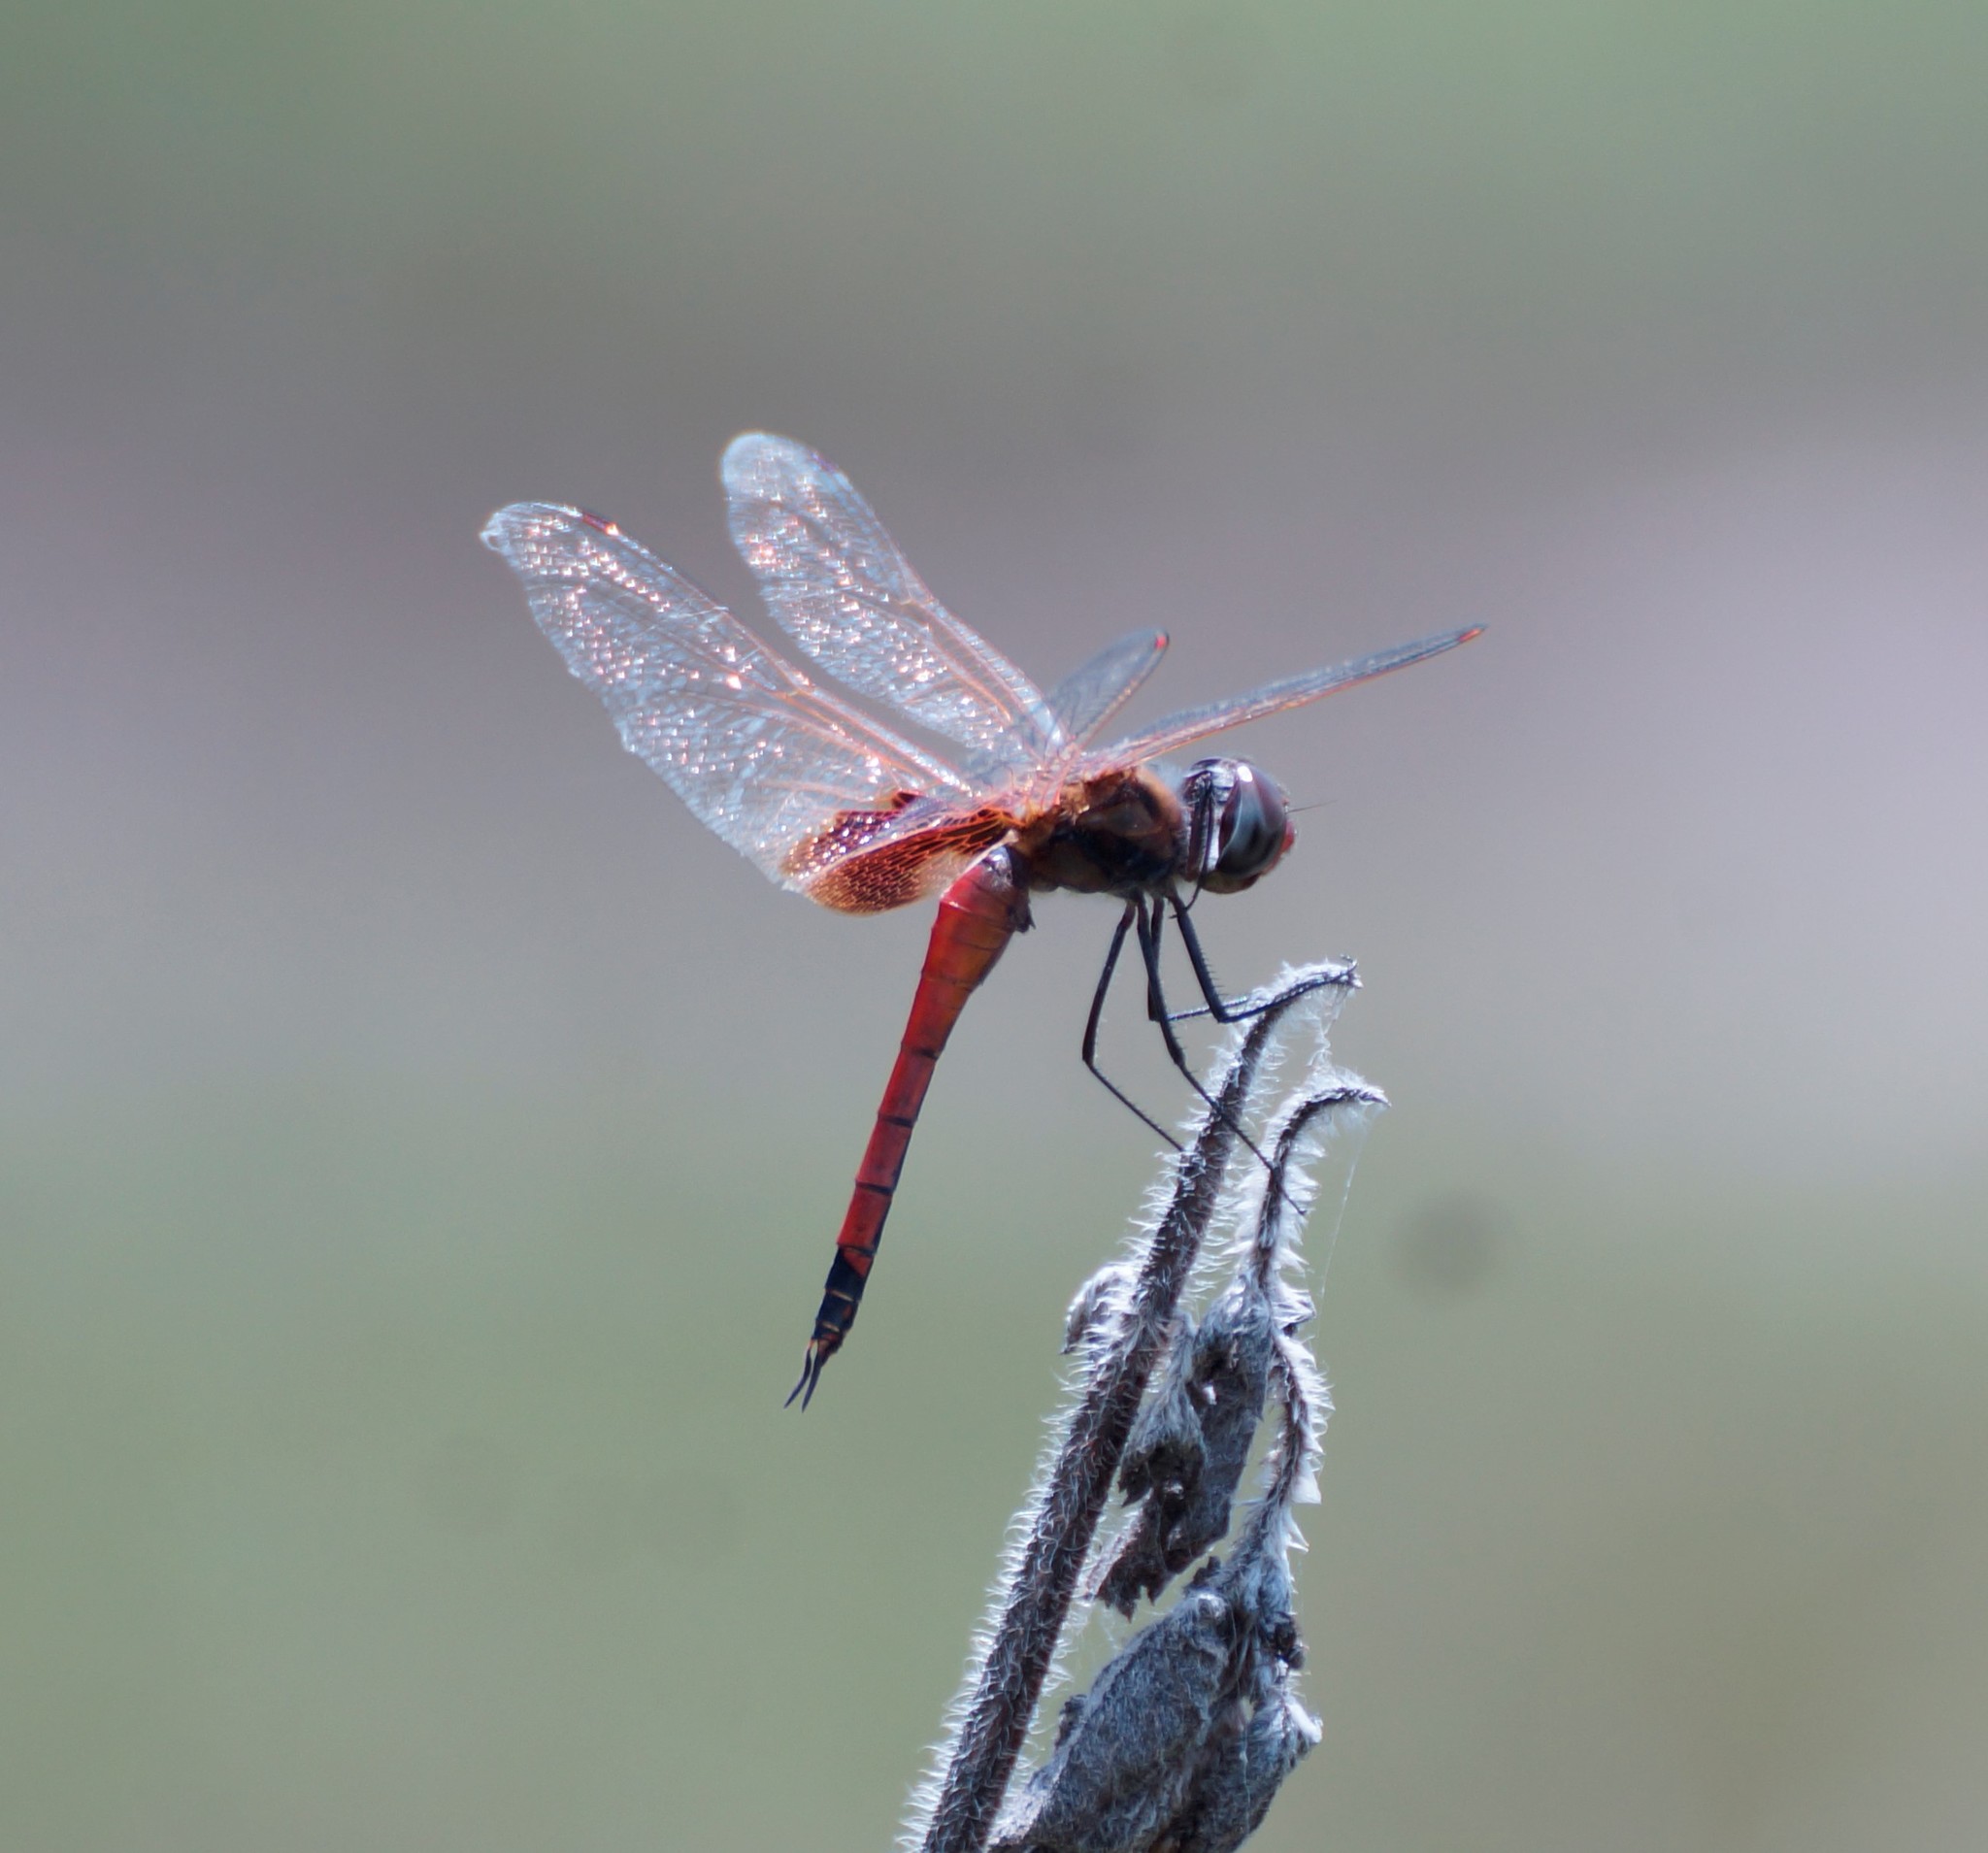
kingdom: Animalia
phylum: Arthropoda
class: Insecta
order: Odonata
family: Libellulidae
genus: Tramea
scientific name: Tramea loewii
